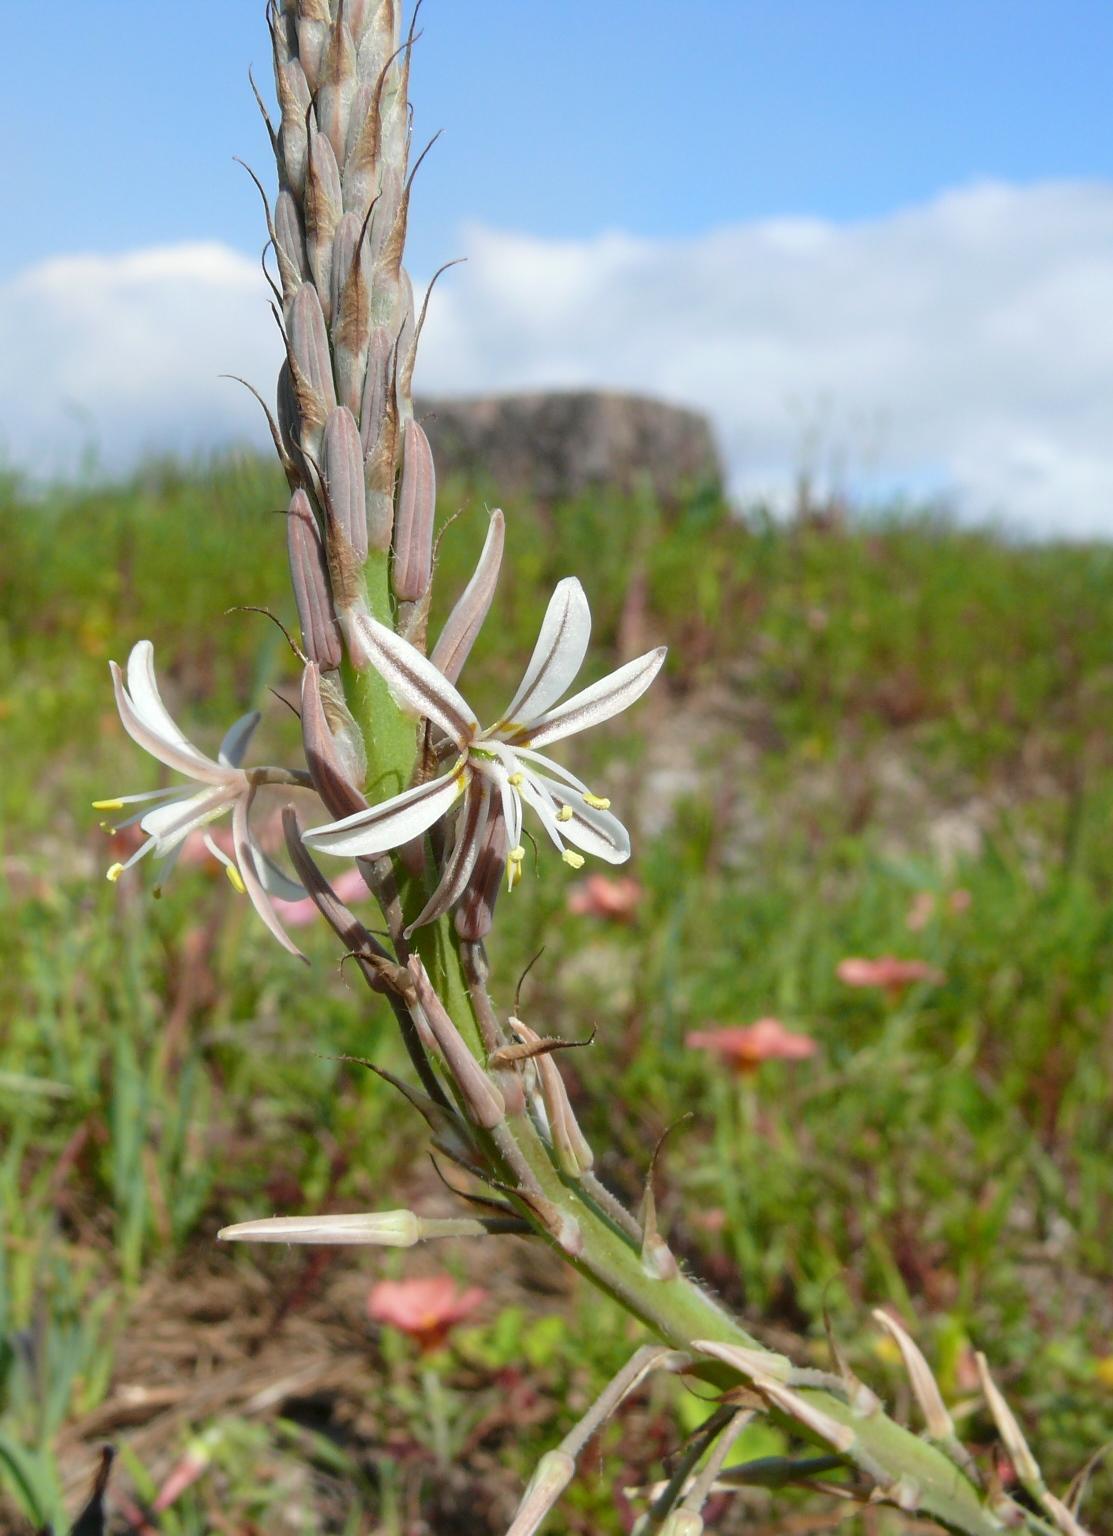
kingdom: Plantae
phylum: Tracheophyta
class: Liliopsida
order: Asparagales
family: Asphodelaceae
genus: Trachyandra
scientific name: Trachyandra ciliata
